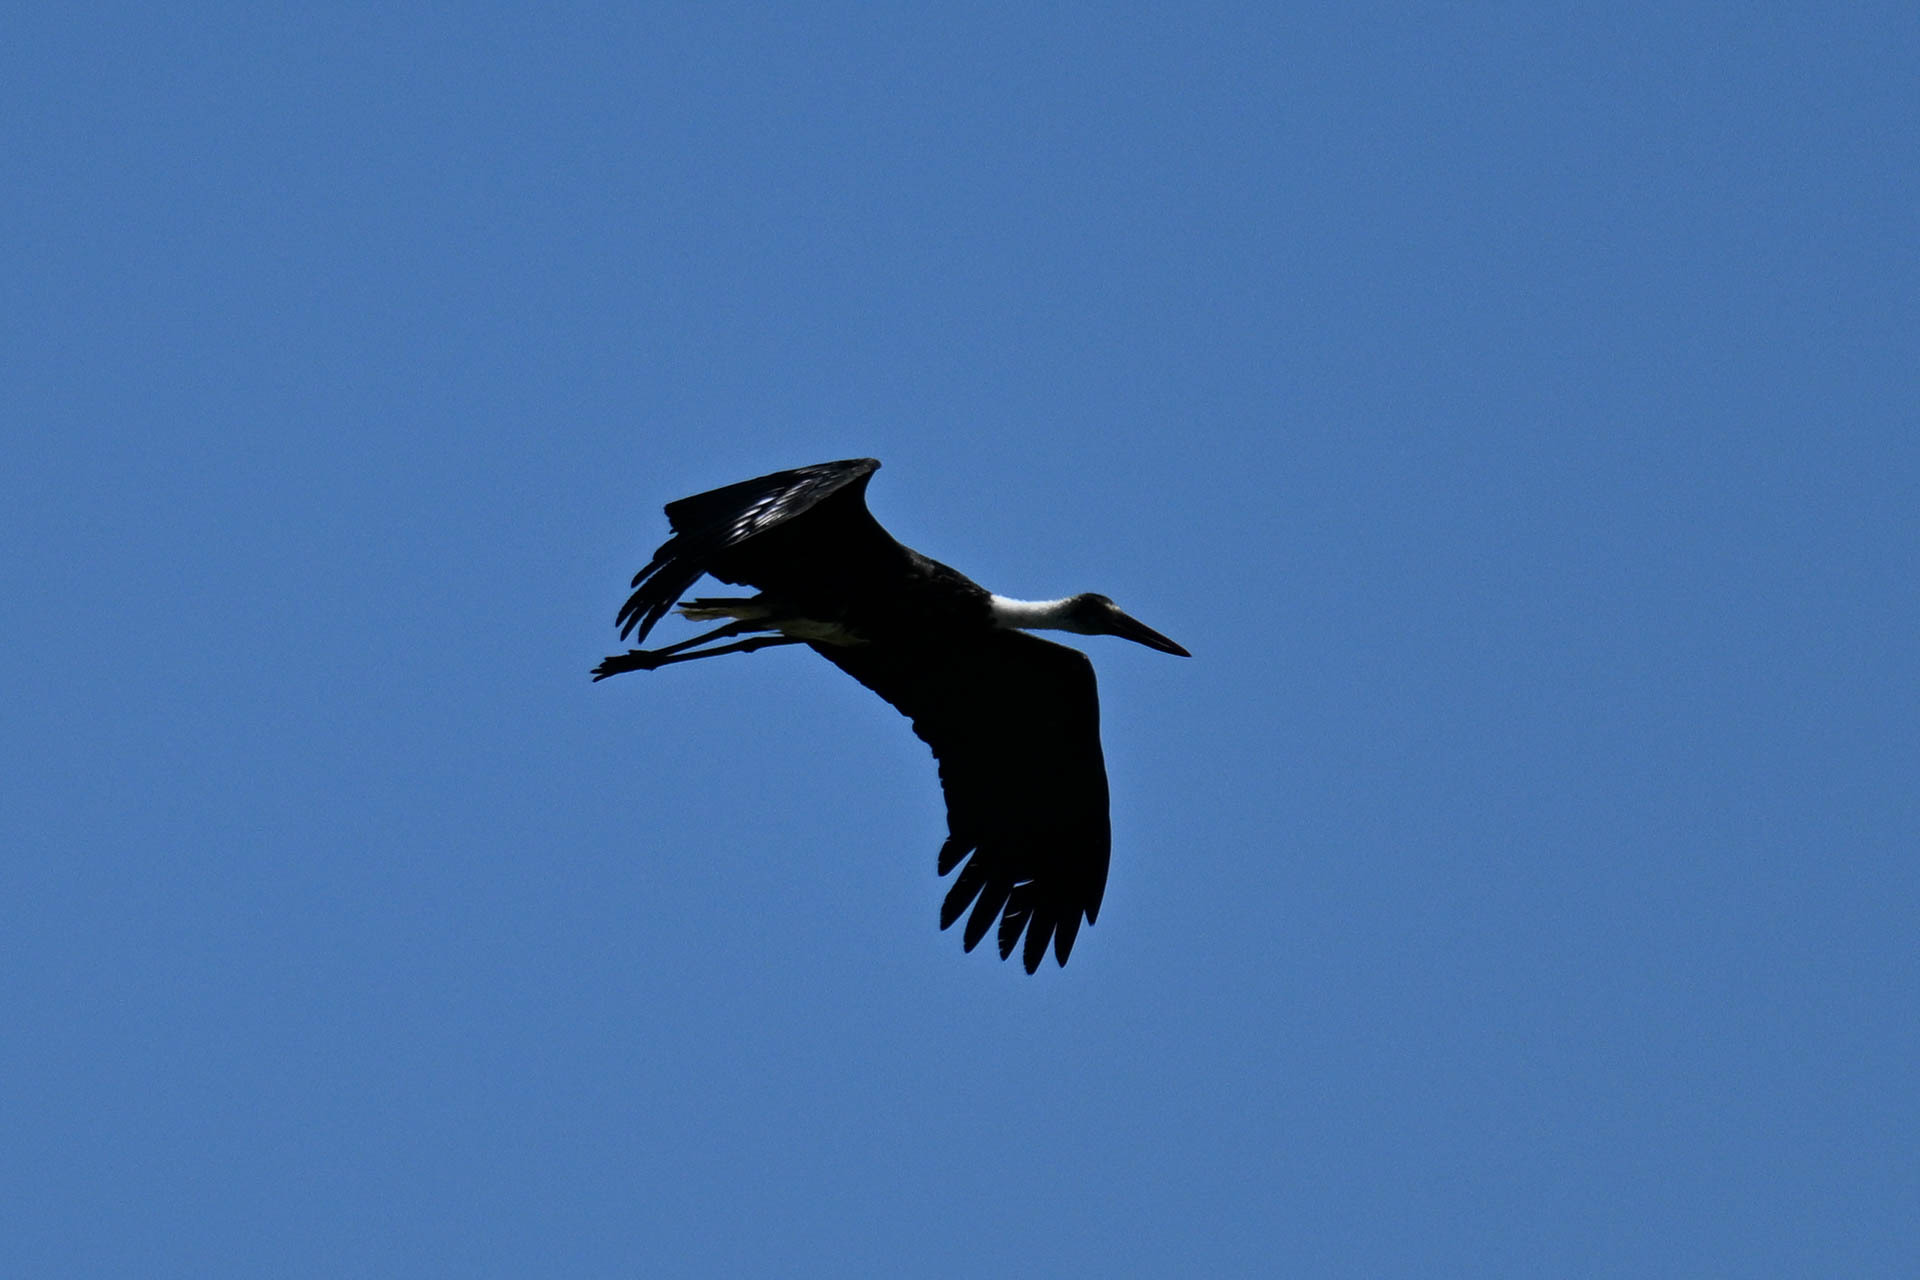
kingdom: Animalia
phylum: Chordata
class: Aves
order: Ciconiiformes
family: Ciconiidae
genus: Ciconia
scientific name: Ciconia microscelis
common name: African woollyneck
